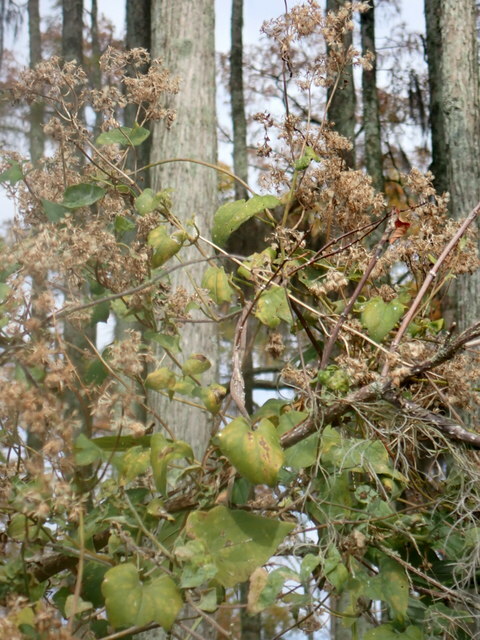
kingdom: Plantae
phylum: Tracheophyta
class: Magnoliopsida
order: Asterales
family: Asteraceae
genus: Mikania
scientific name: Mikania scandens
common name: Climbing hempvine
